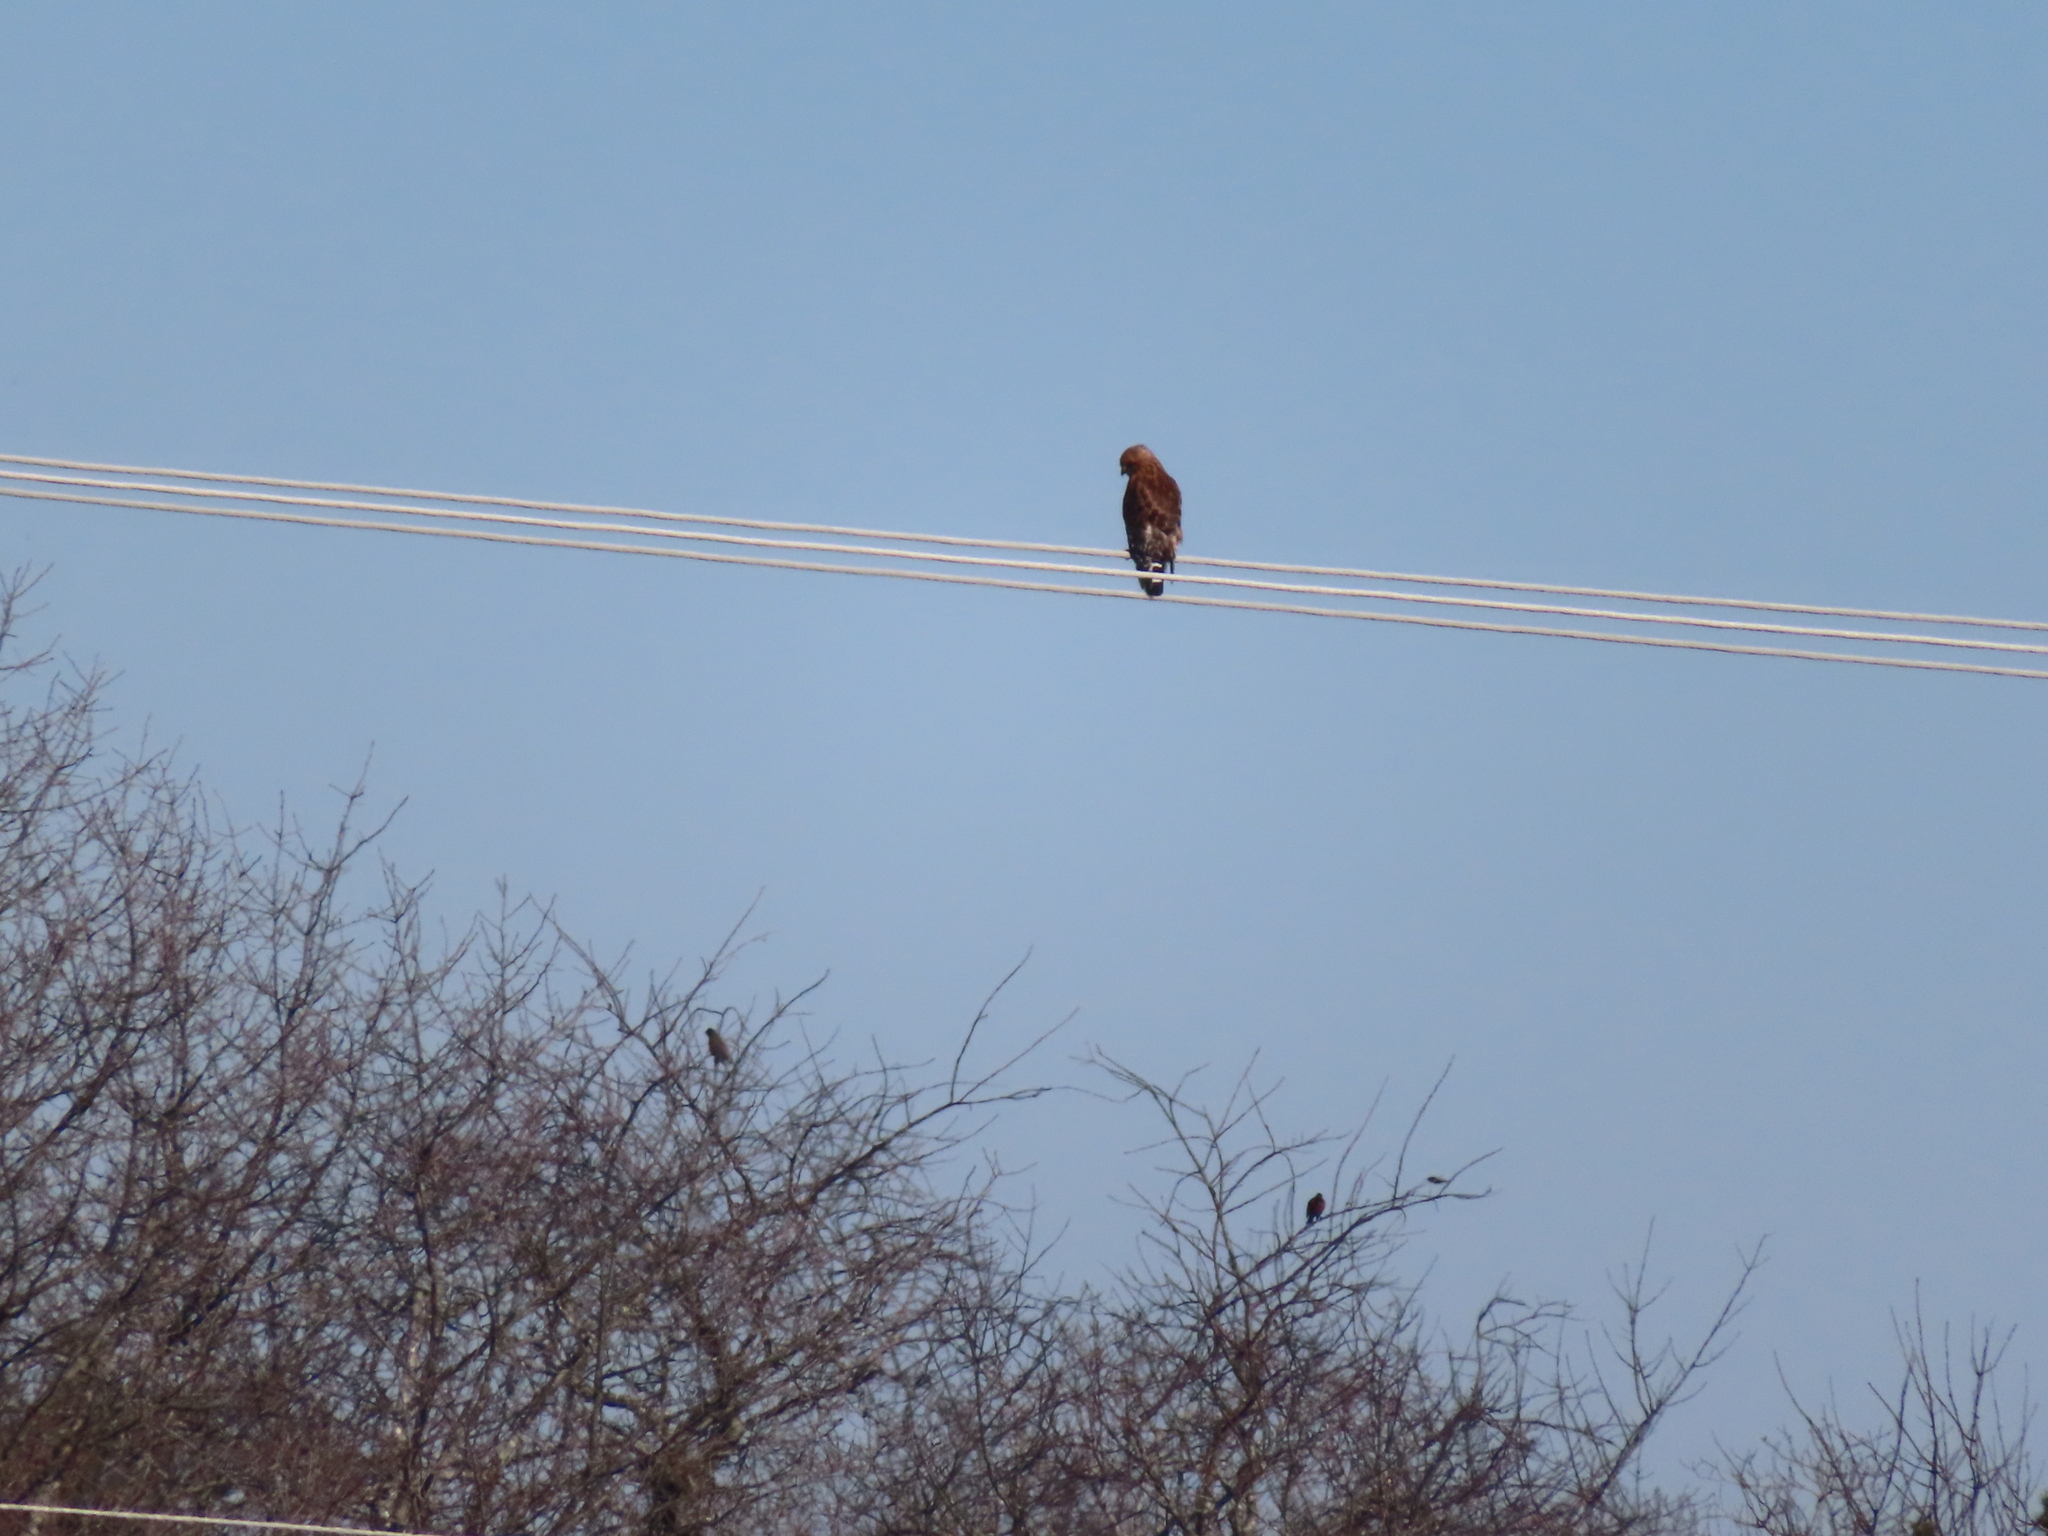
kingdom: Animalia
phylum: Chordata
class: Aves
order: Accipitriformes
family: Accipitridae
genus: Buteo
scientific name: Buteo lineatus
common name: Red-shouldered hawk
